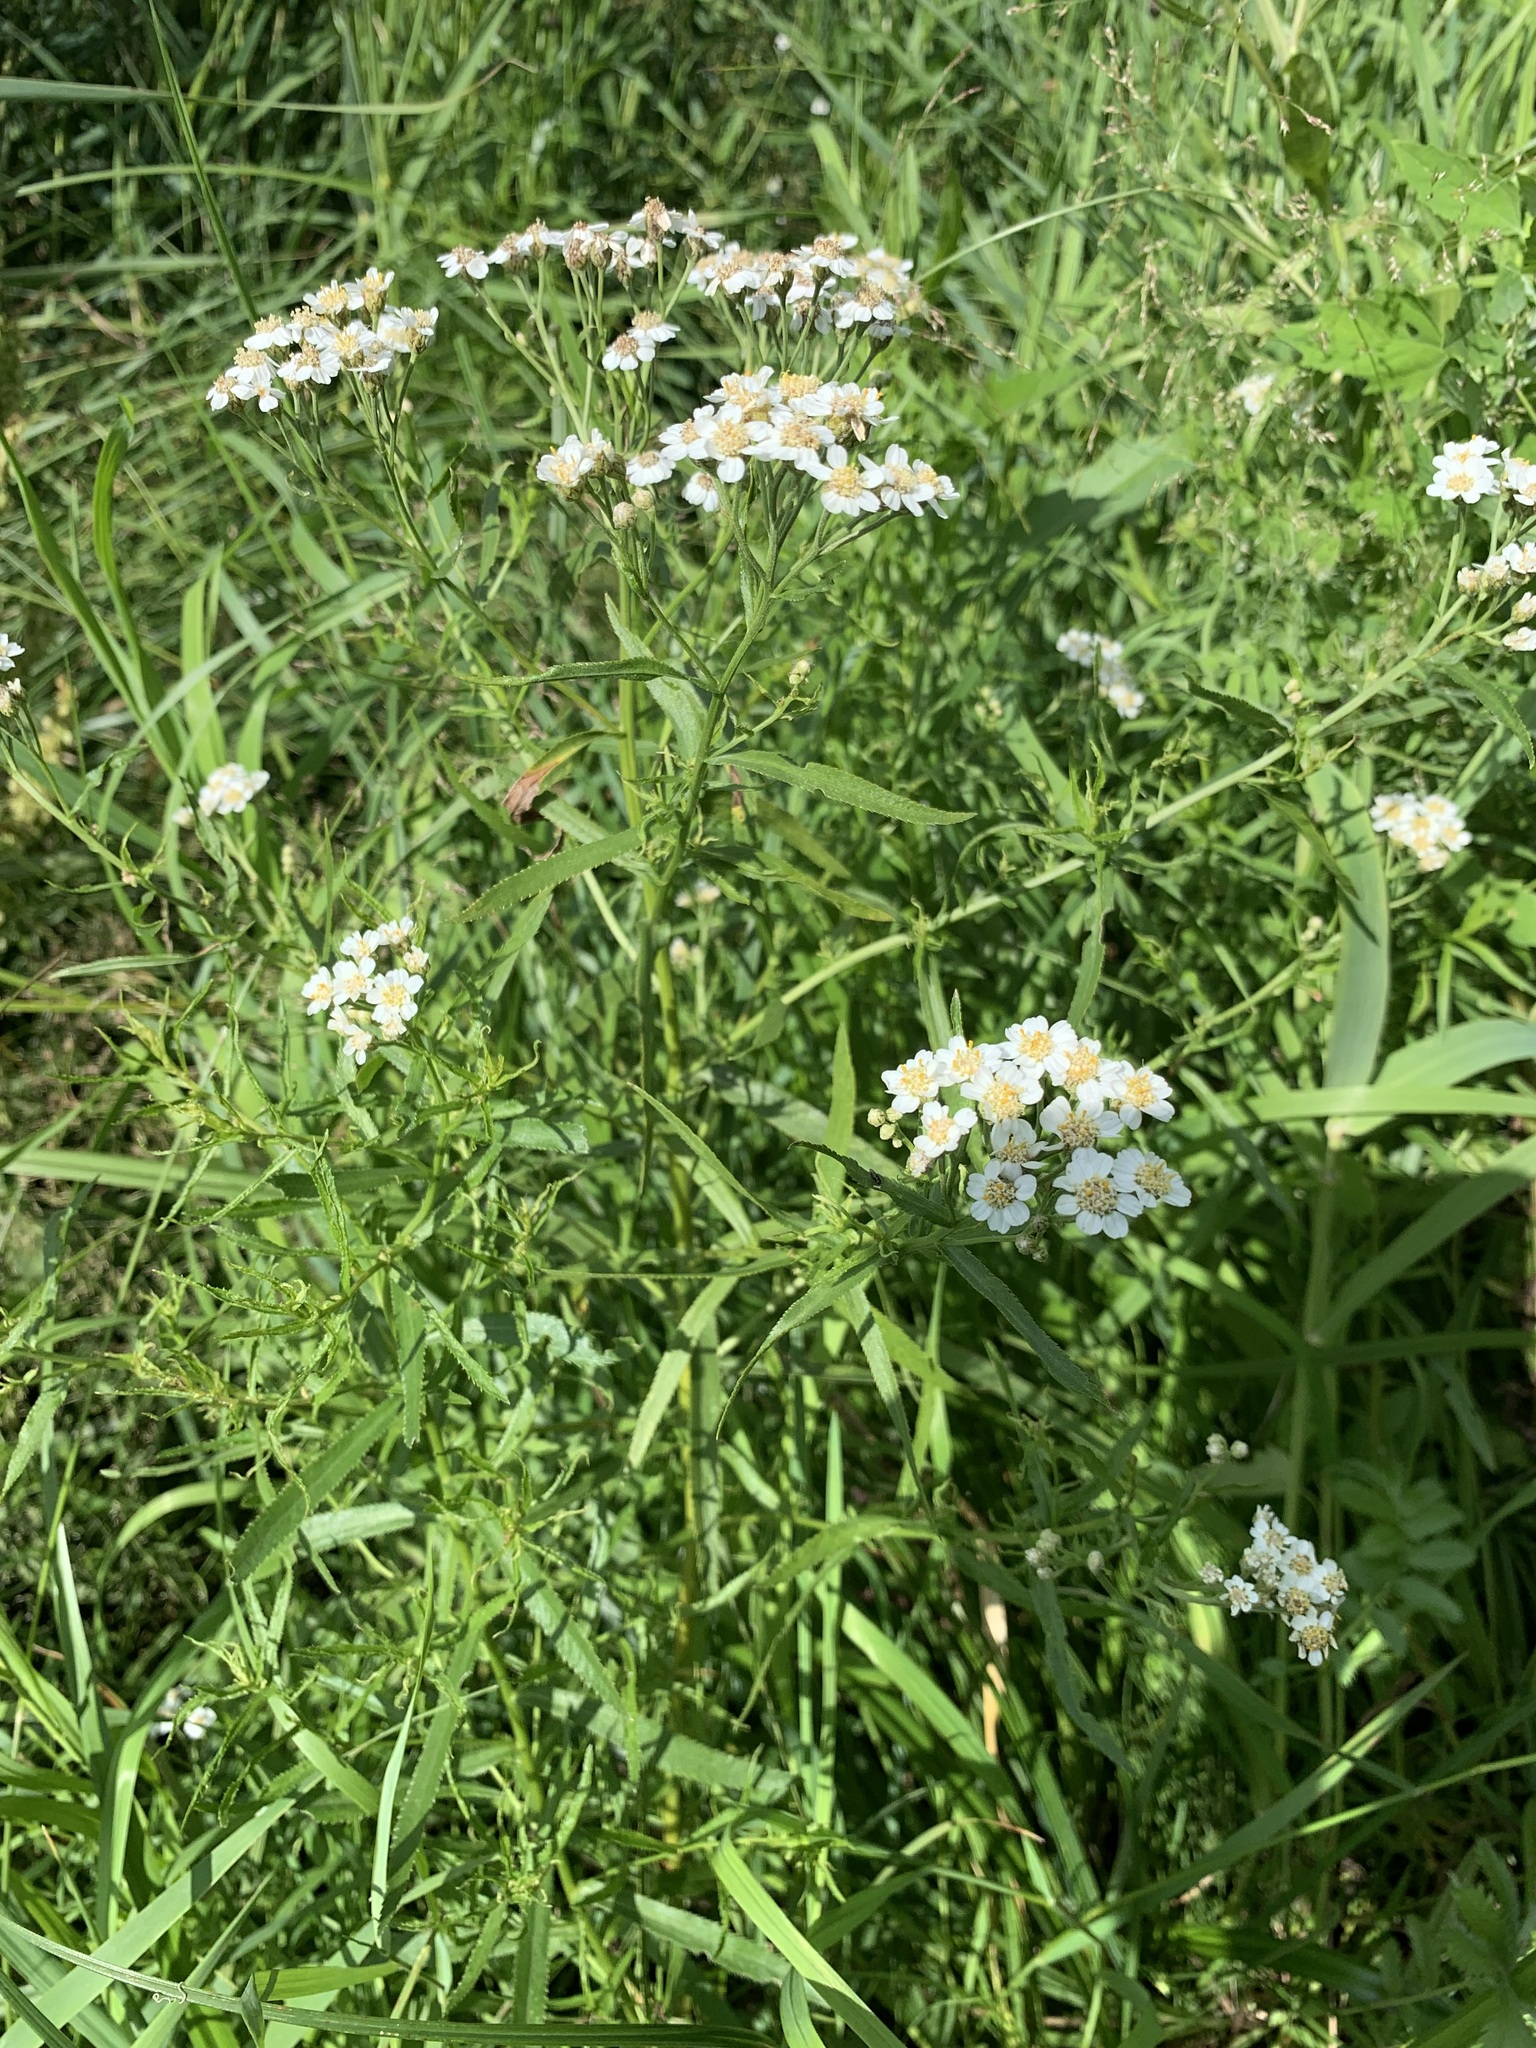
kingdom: Plantae
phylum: Tracheophyta
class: Magnoliopsida
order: Asterales
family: Asteraceae
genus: Achillea
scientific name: Achillea salicifolia
